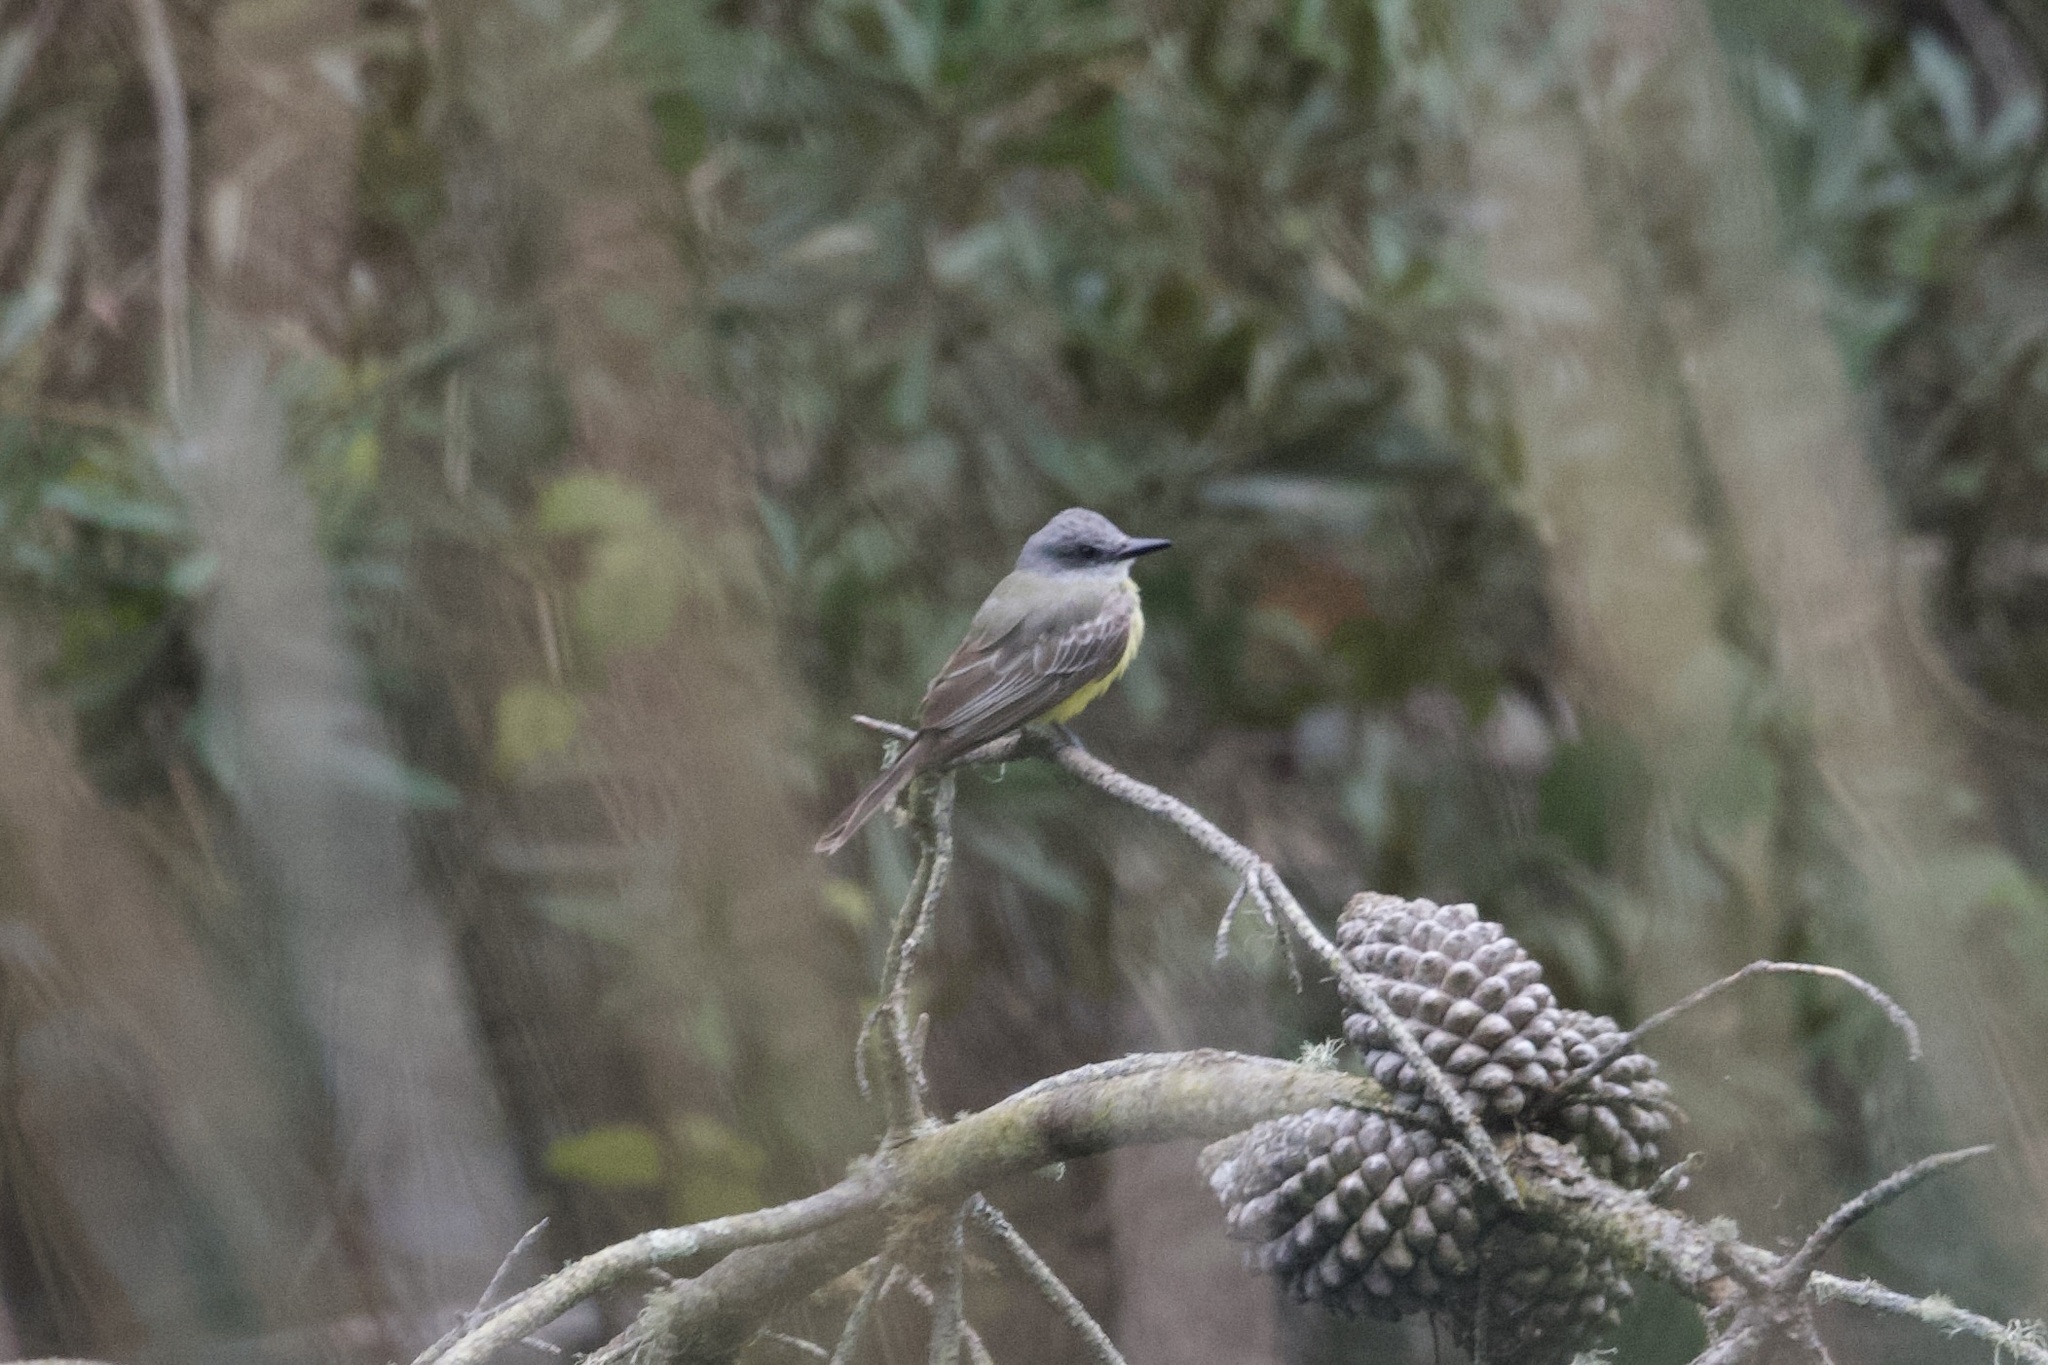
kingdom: Animalia
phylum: Chordata
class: Aves
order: Passeriformes
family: Tyrannidae
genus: Tyrannus
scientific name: Tyrannus melancholicus
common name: Tropical kingbird
